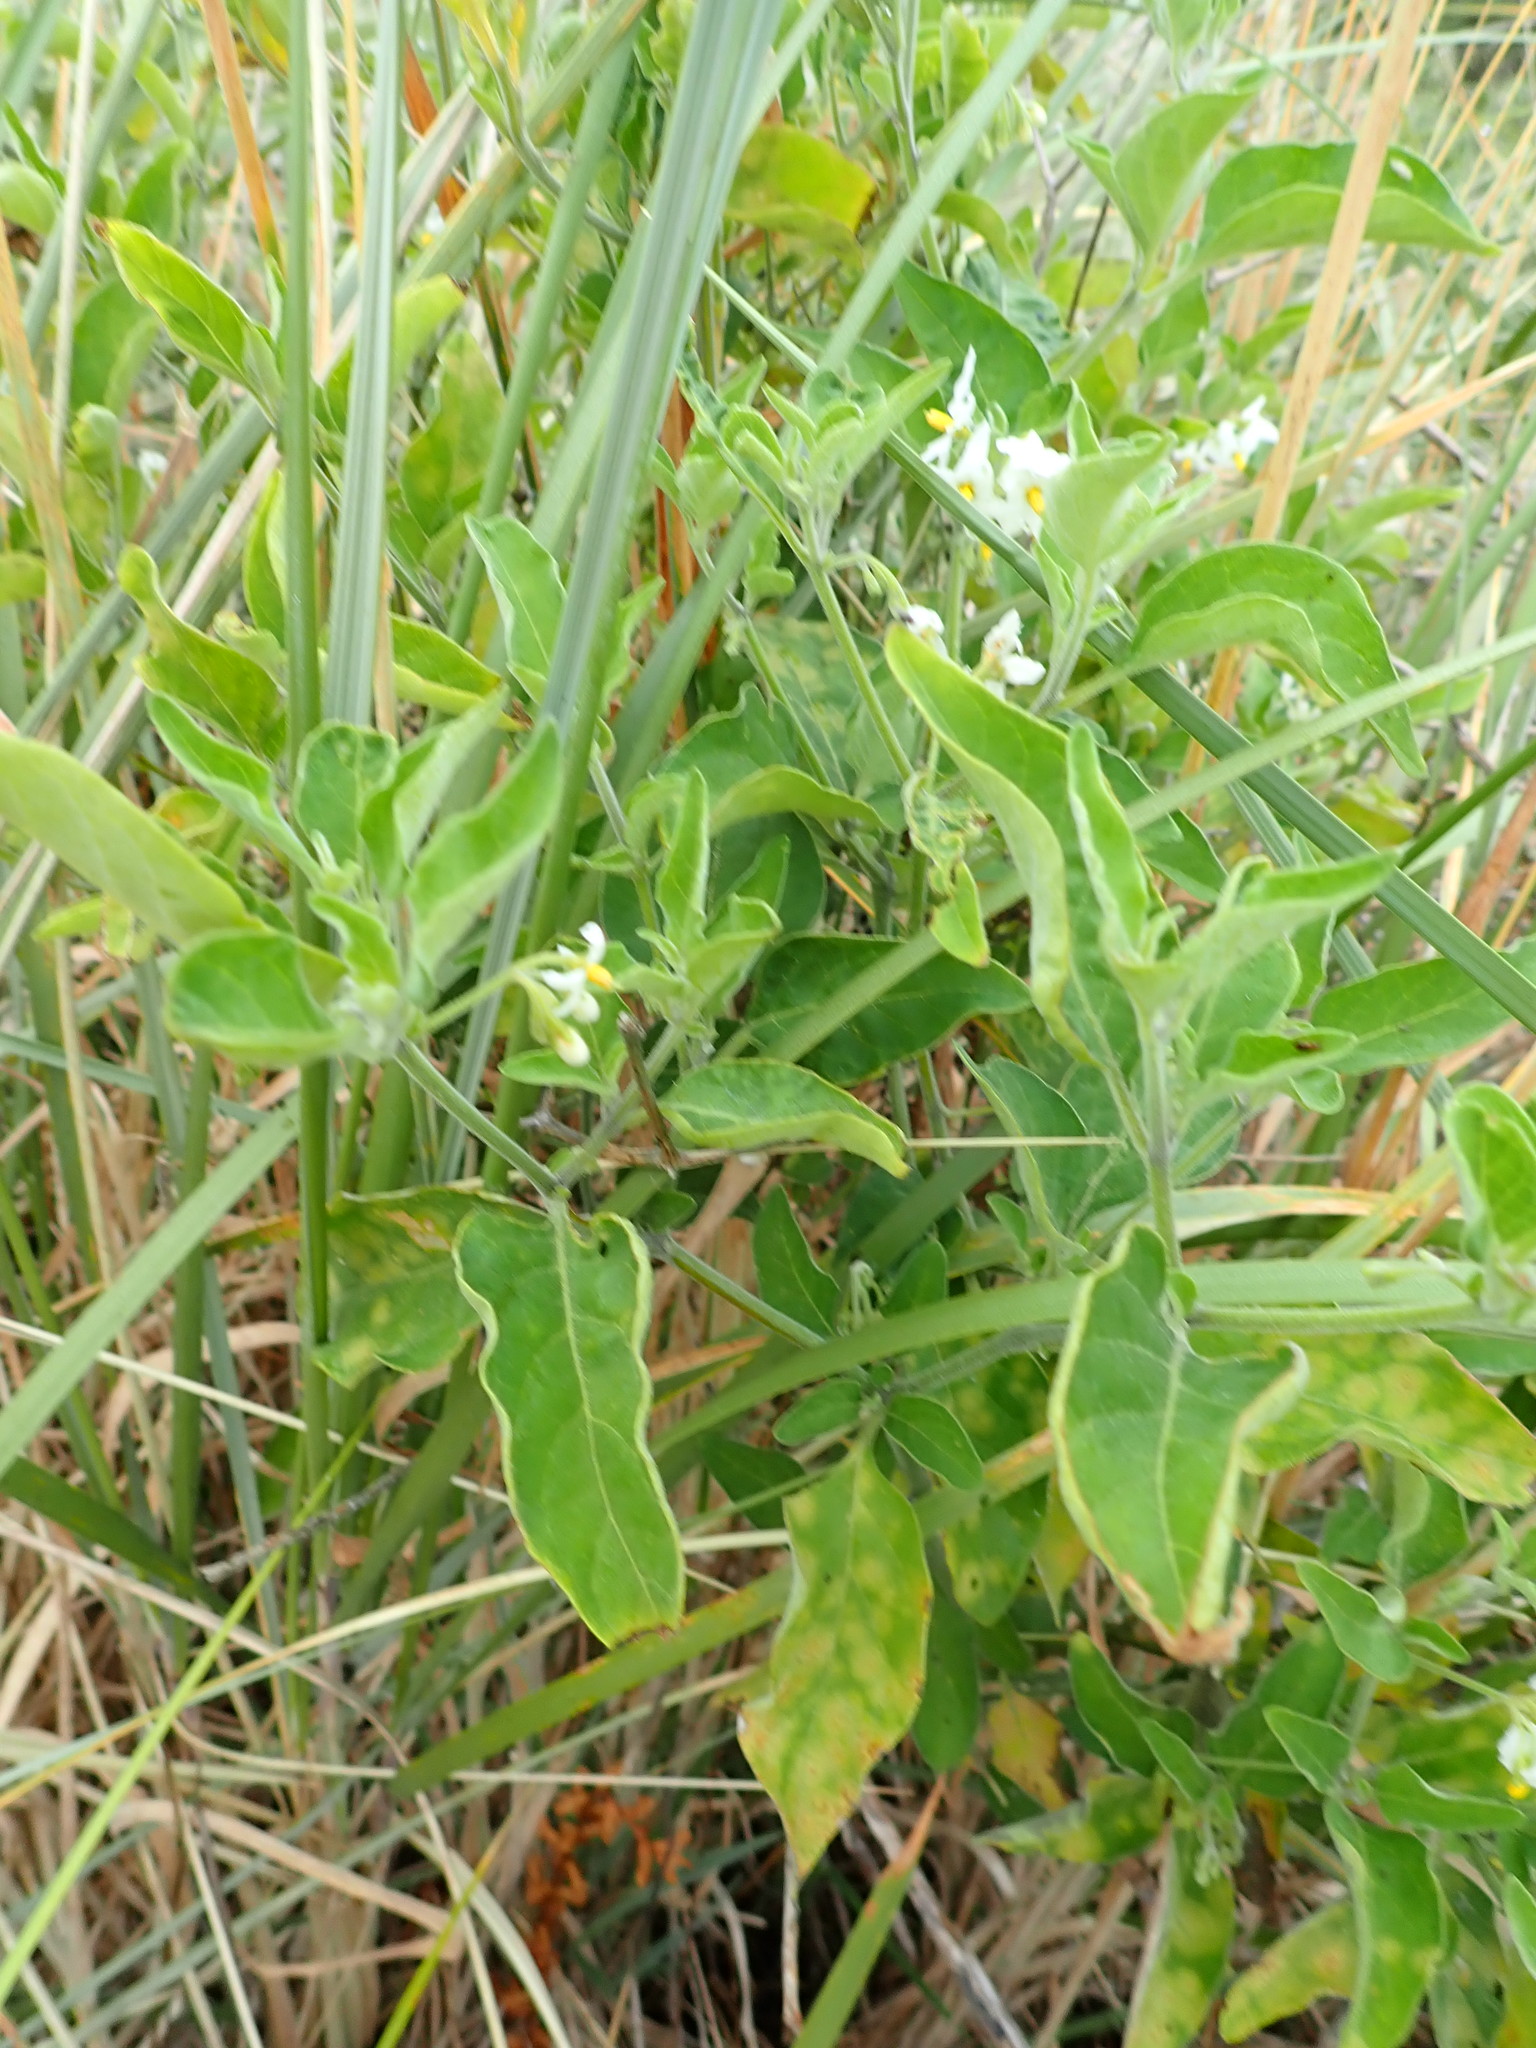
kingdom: Plantae
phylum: Tracheophyta
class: Magnoliopsida
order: Solanales
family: Solanaceae
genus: Solanum
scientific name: Solanum chenopodioides
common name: Tall nightshade
